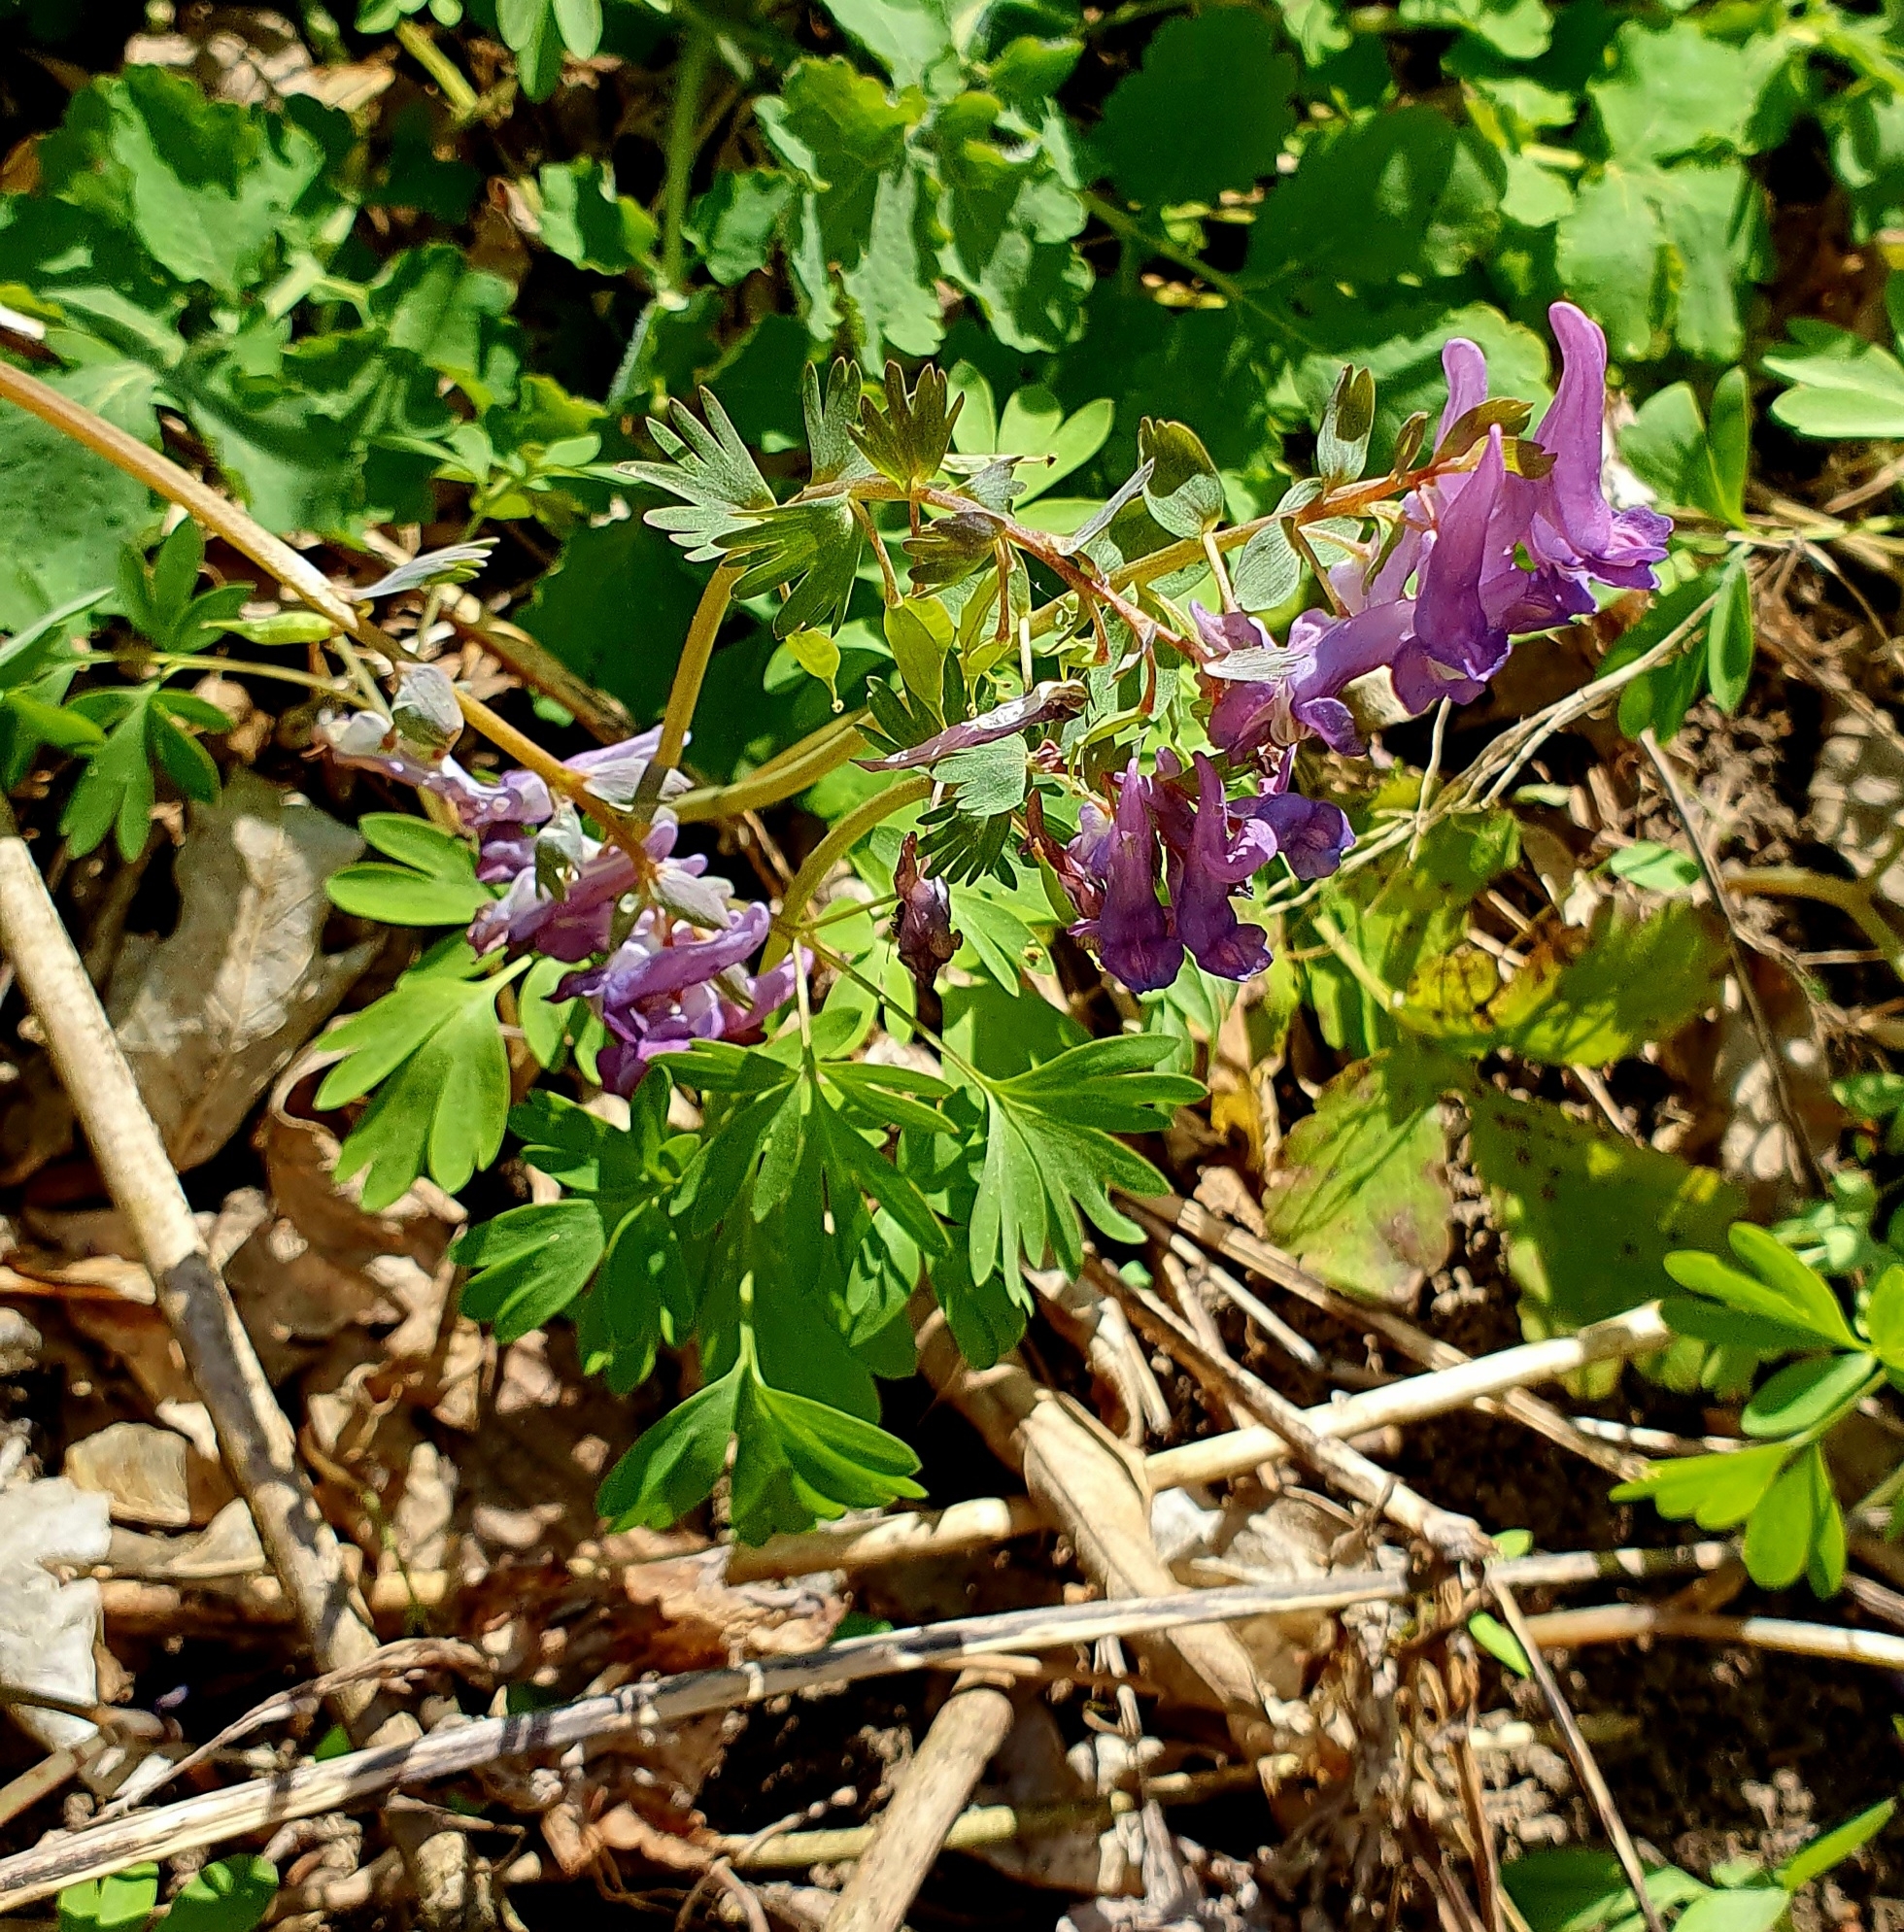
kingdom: Plantae
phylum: Tracheophyta
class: Magnoliopsida
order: Ranunculales
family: Papaveraceae
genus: Corydalis
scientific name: Corydalis solida
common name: Bird-in-a-bush
